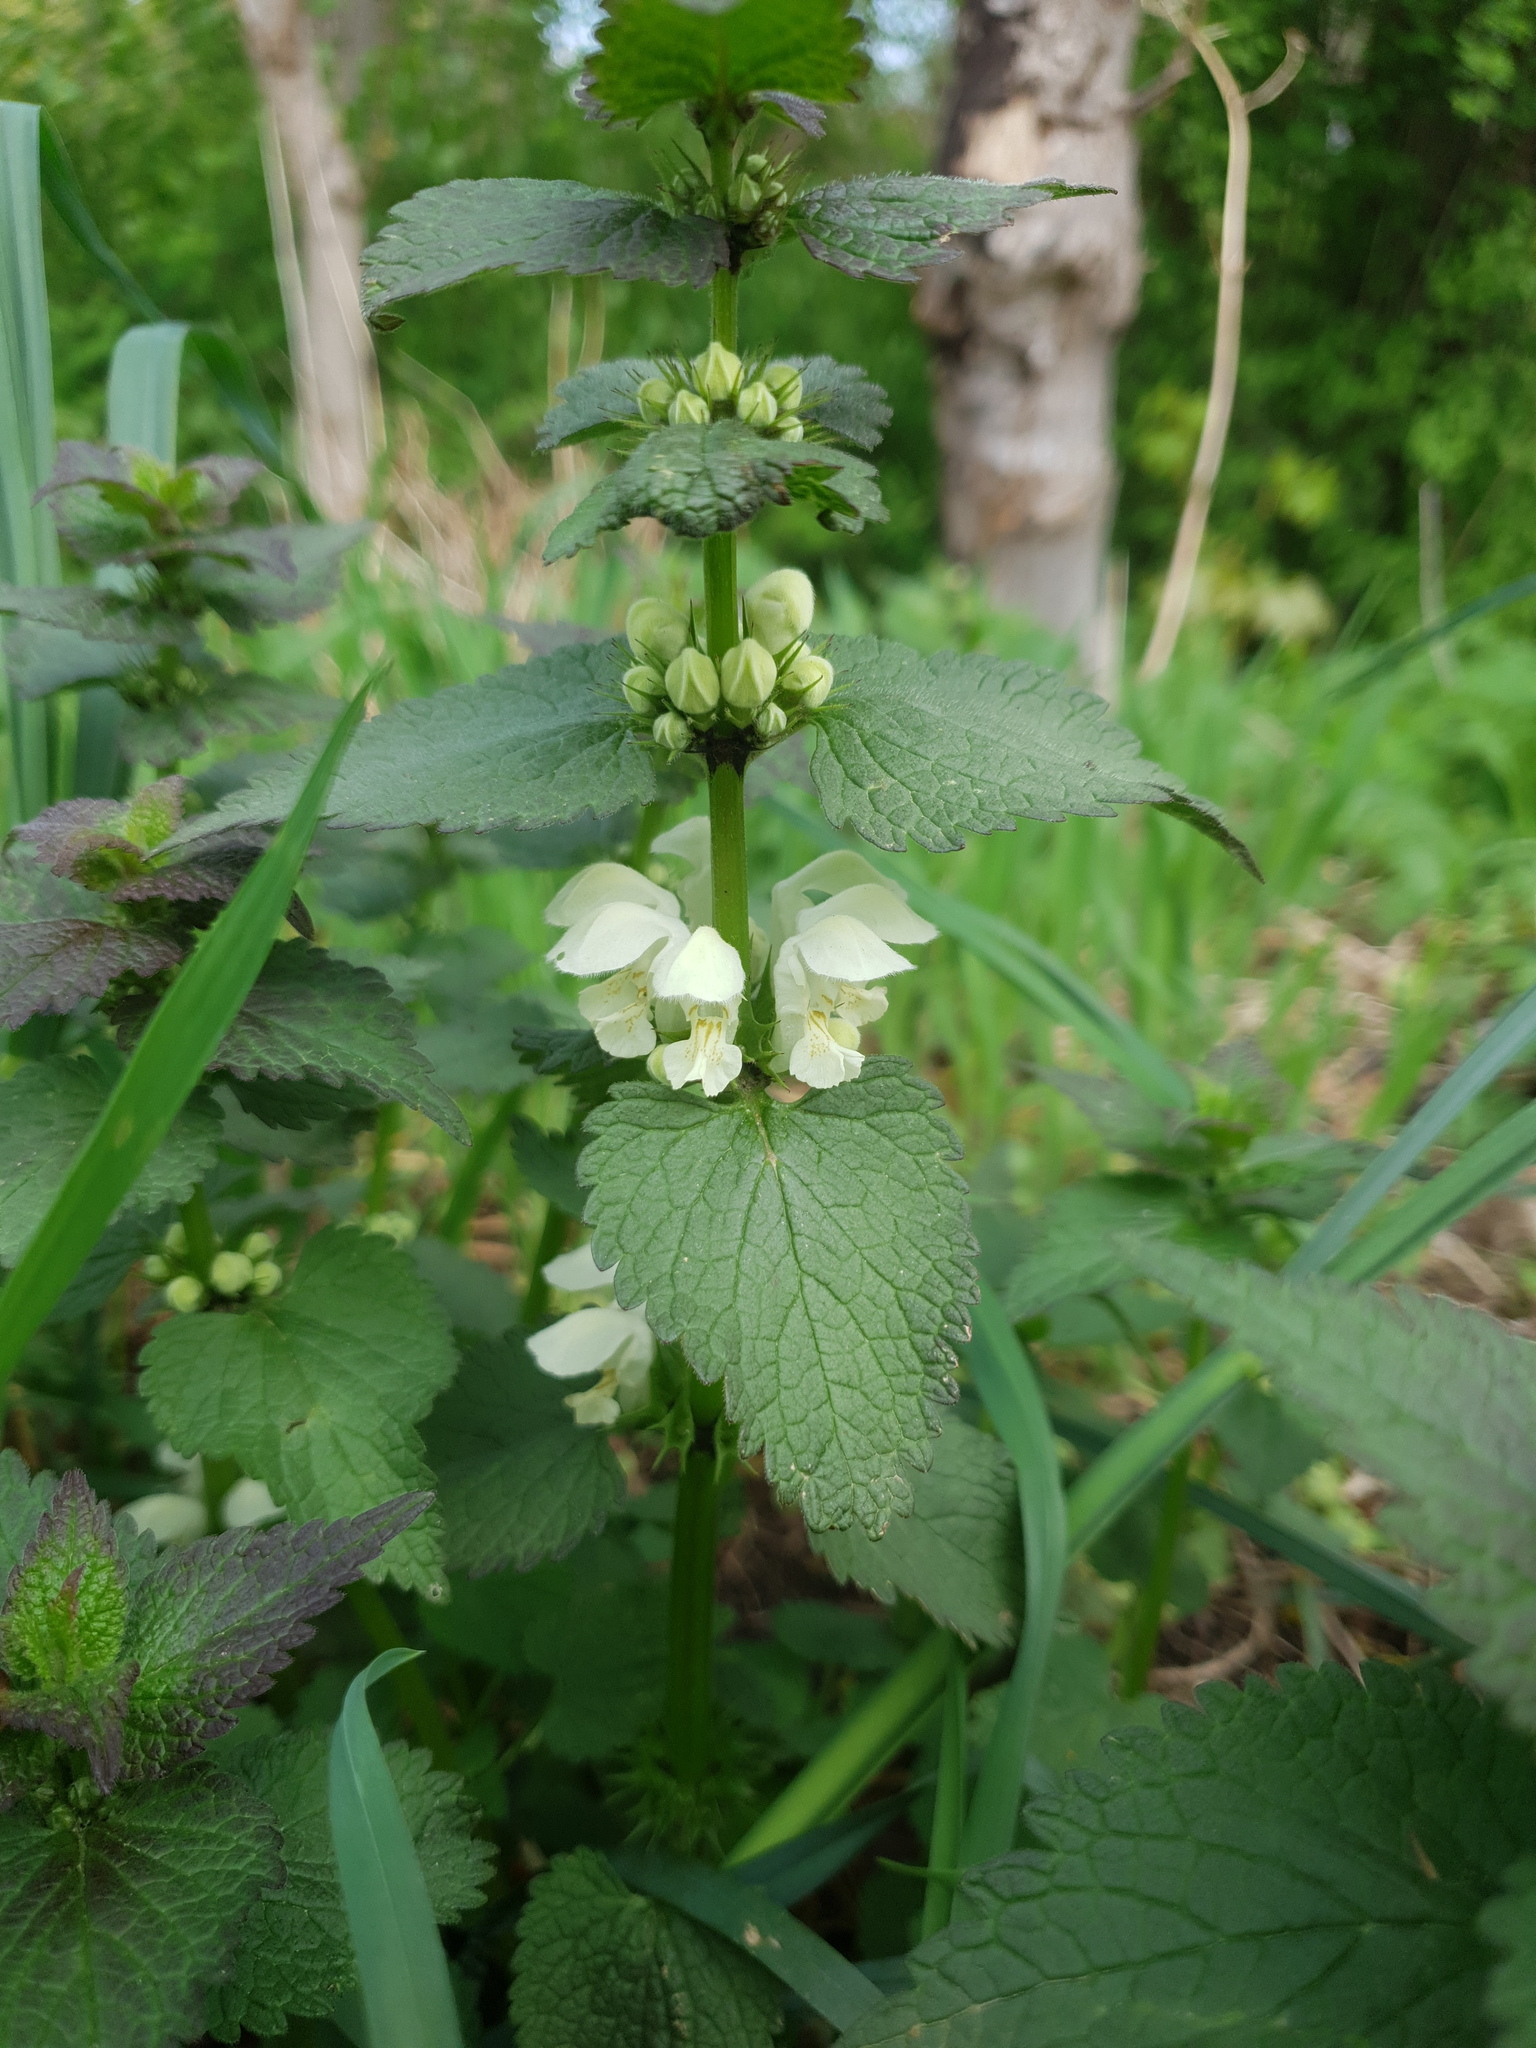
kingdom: Plantae
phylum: Tracheophyta
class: Magnoliopsida
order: Lamiales
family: Lamiaceae
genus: Lamium
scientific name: Lamium album
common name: White dead-nettle
